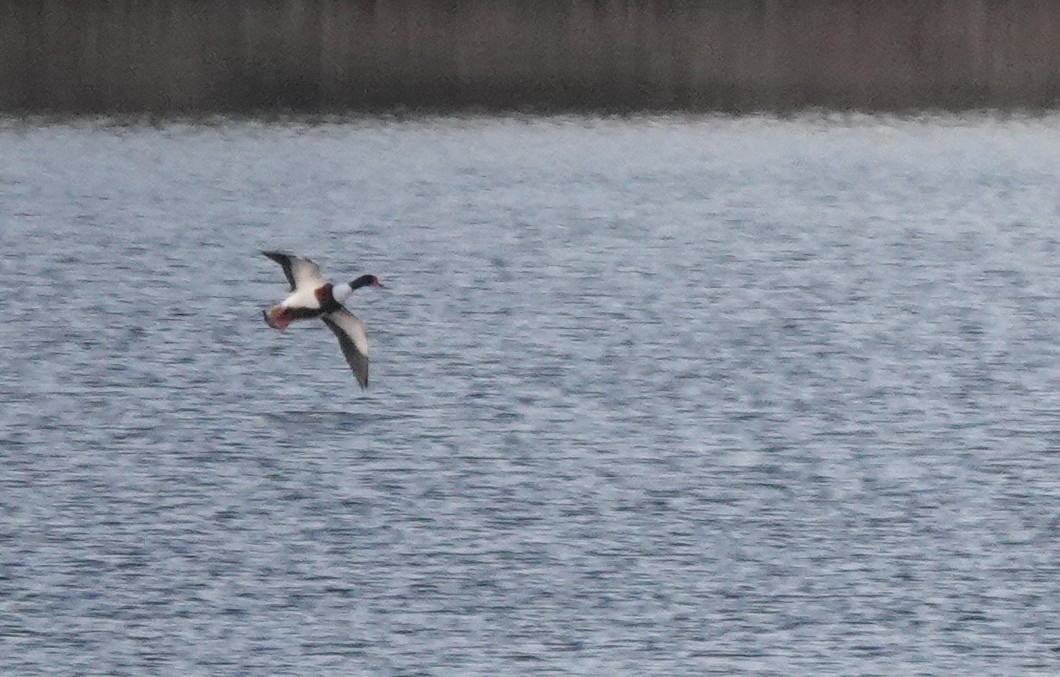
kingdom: Animalia
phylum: Chordata
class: Aves
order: Anseriformes
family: Anatidae
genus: Tadorna
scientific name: Tadorna tadorna
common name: Common shelduck
